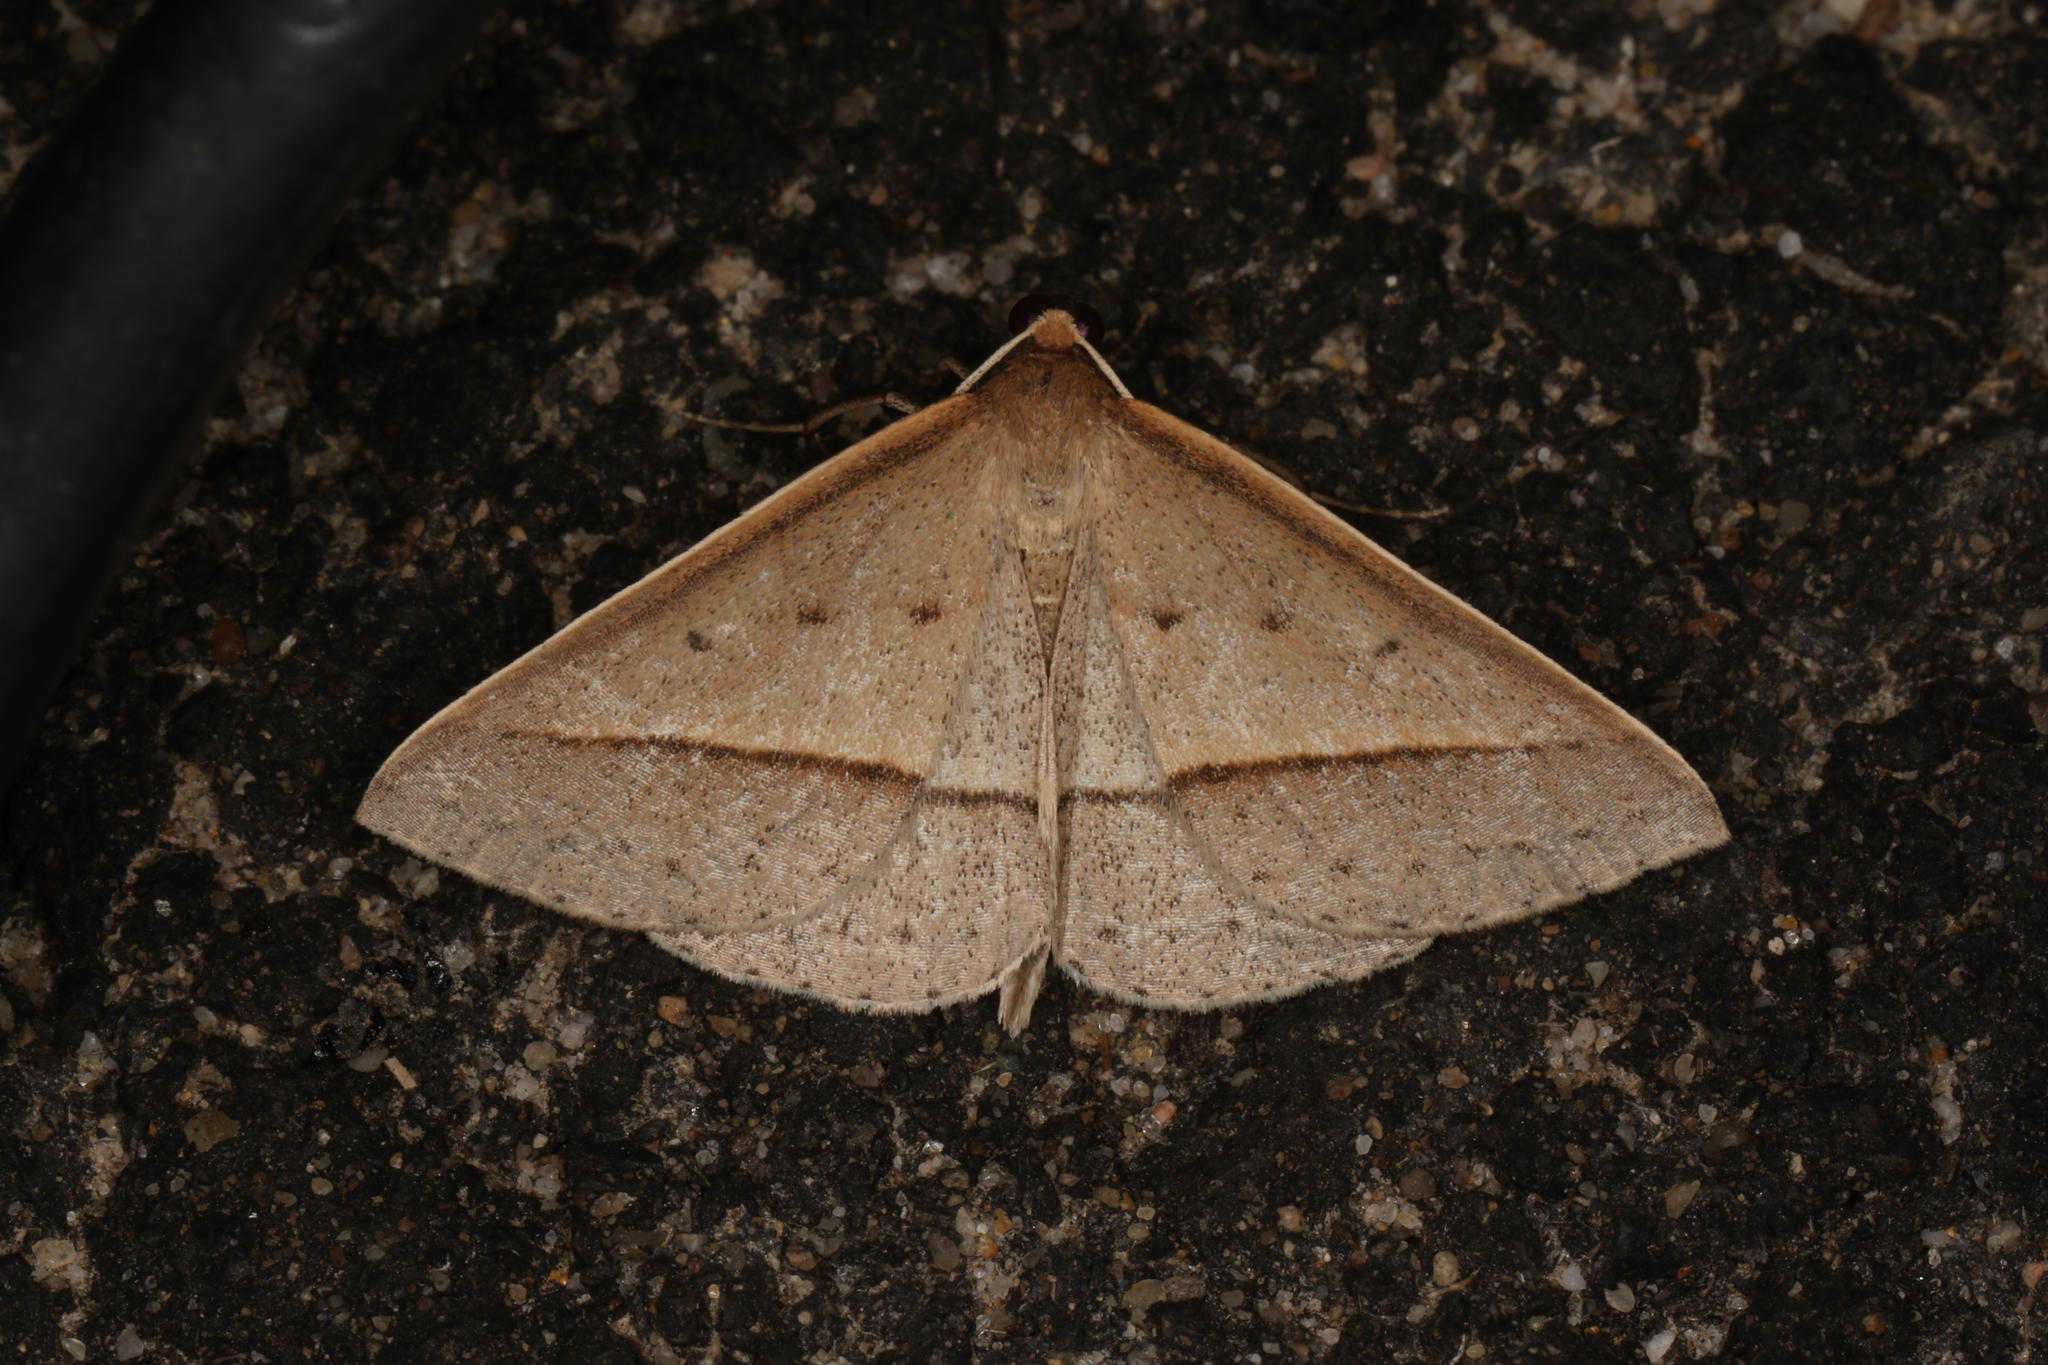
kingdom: Animalia
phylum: Arthropoda
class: Insecta
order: Lepidoptera
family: Geometridae
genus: Epidesmia
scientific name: Epidesmia tryxaria
